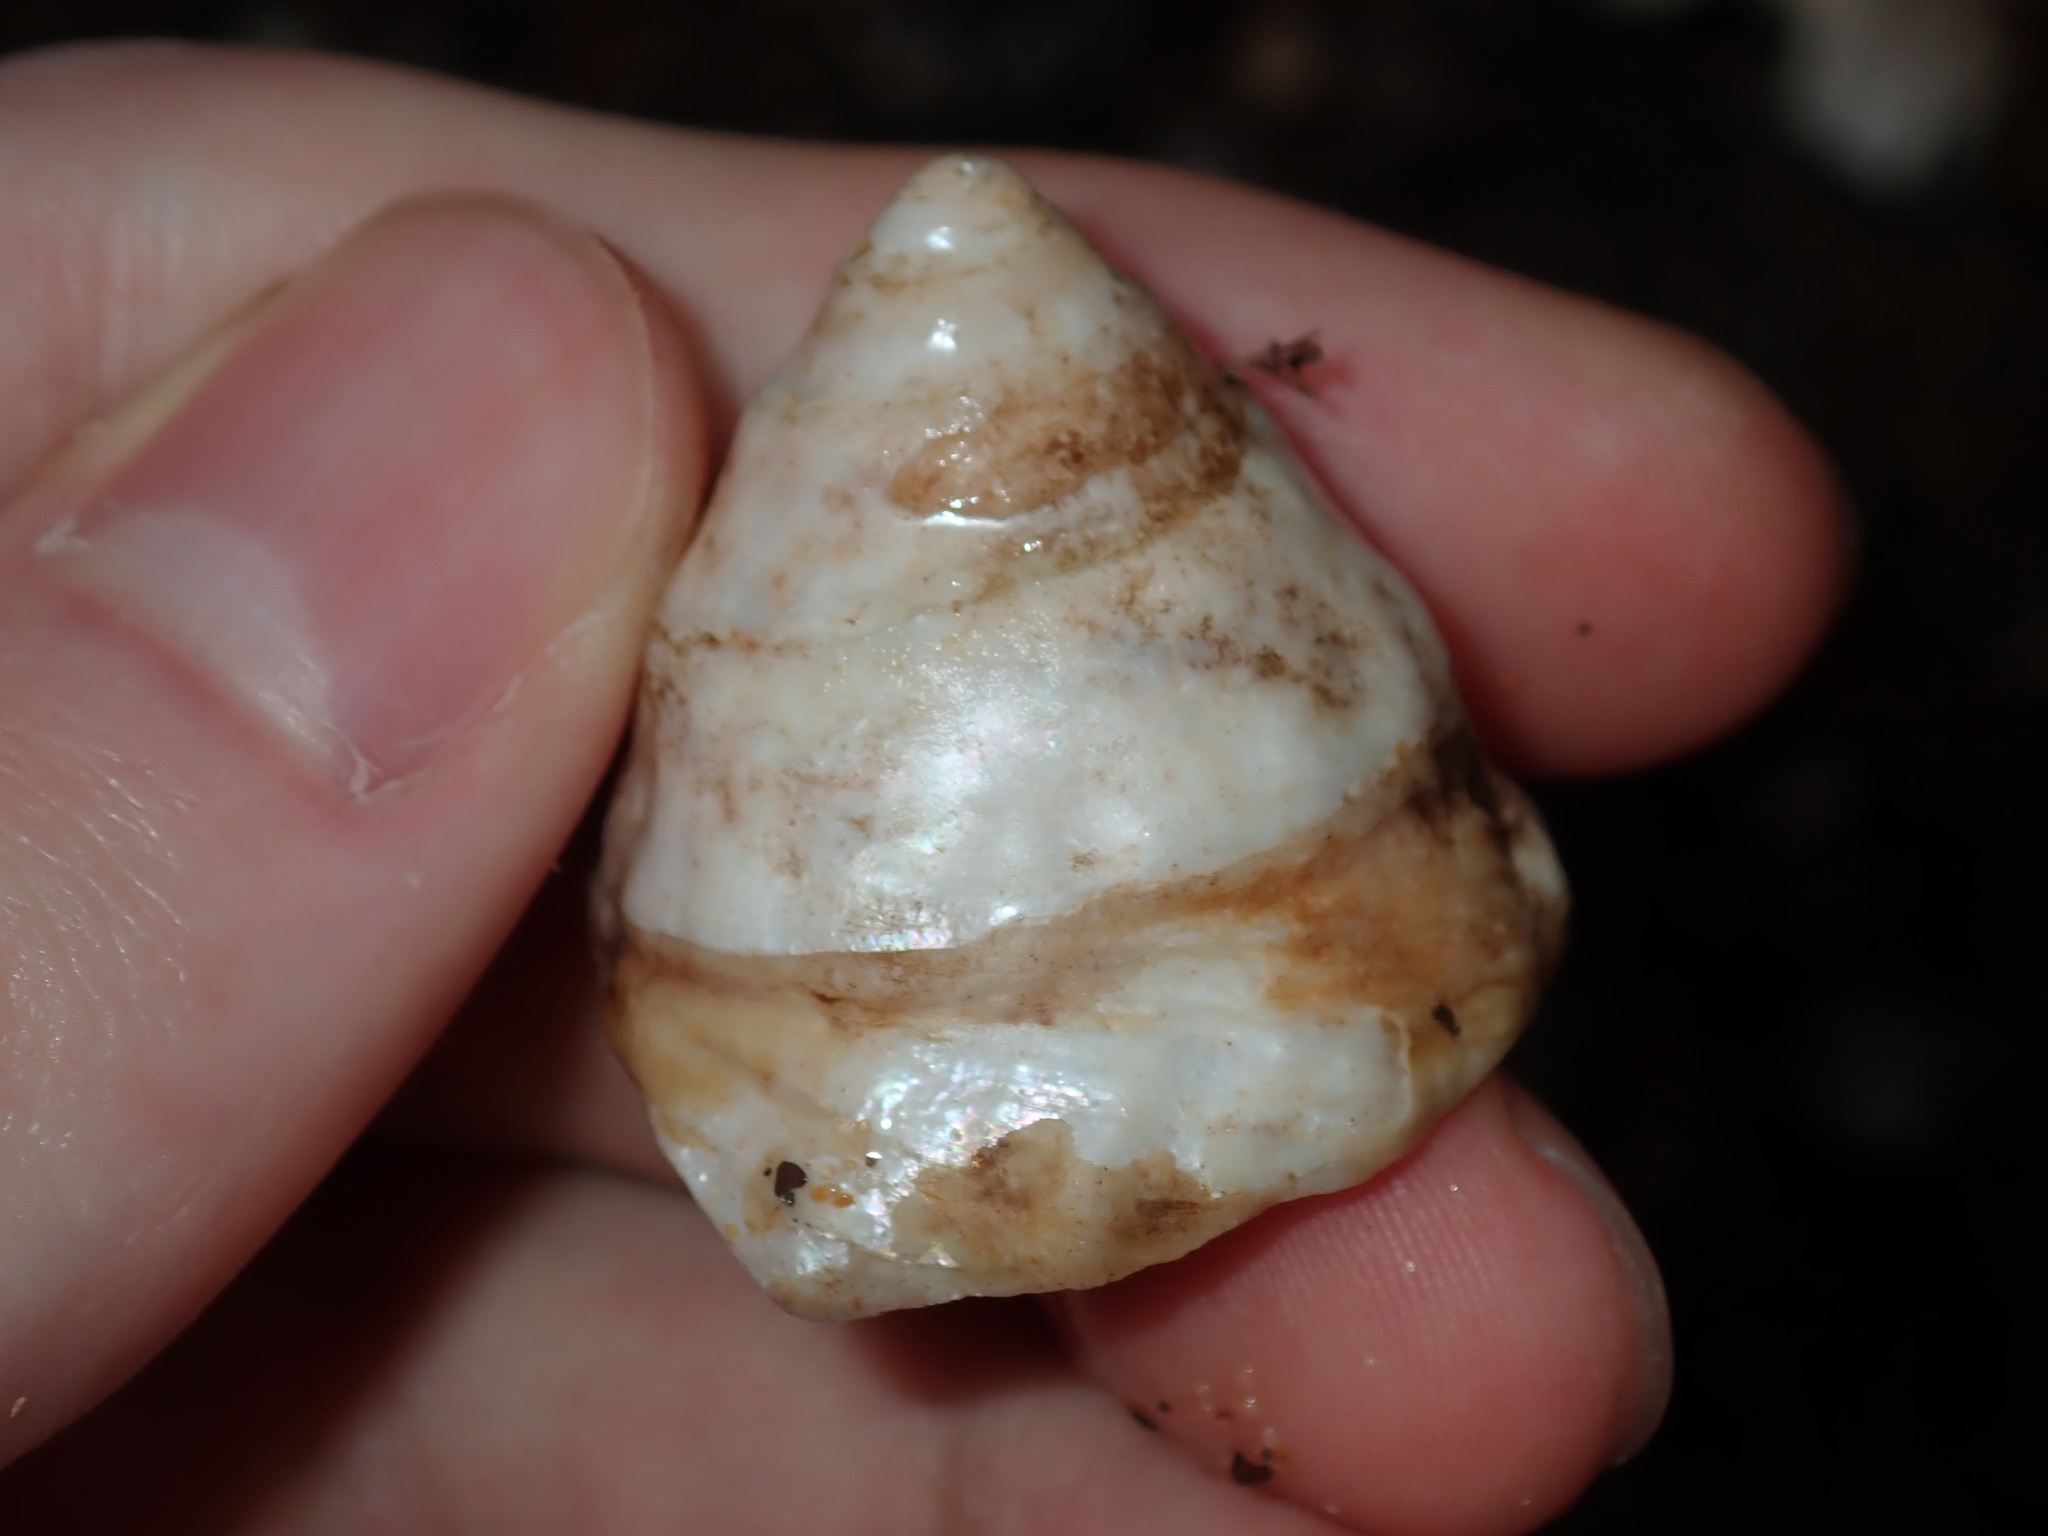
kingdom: Animalia
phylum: Mollusca
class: Gastropoda
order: Trochida
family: Turbinidae
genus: Astralium
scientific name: Astralium tentoriiforme
